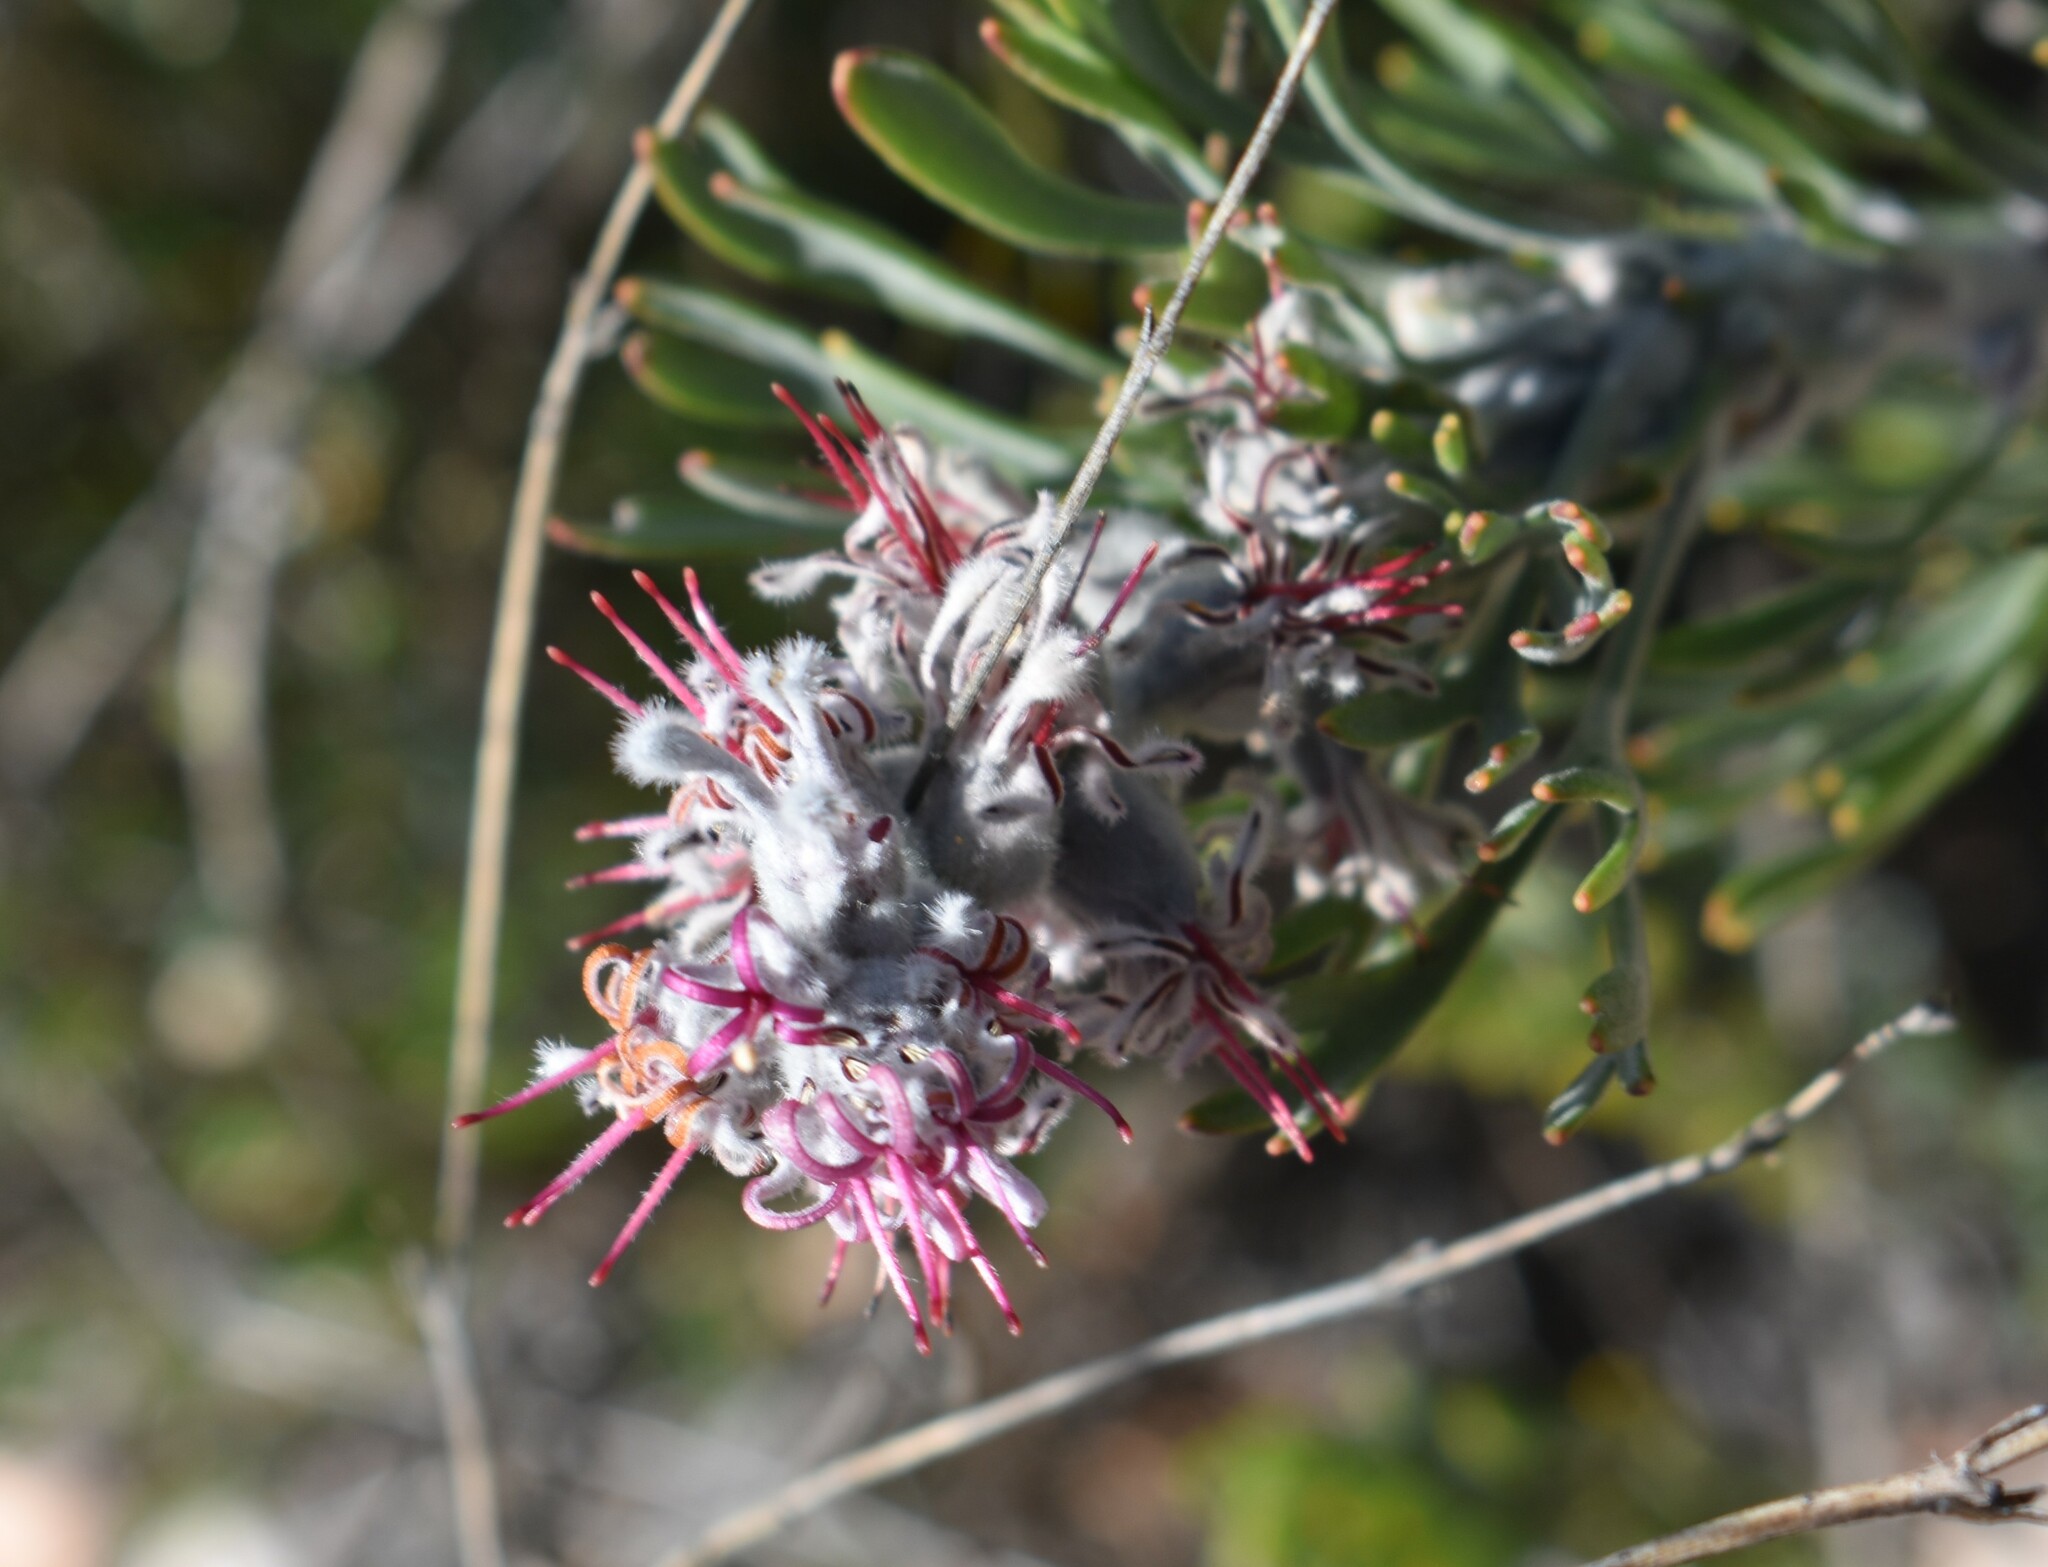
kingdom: Plantae
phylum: Tracheophyta
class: Magnoliopsida
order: Proteales
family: Proteaceae
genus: Paranomus
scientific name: Paranomus dispersus
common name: Long-head sceptre
